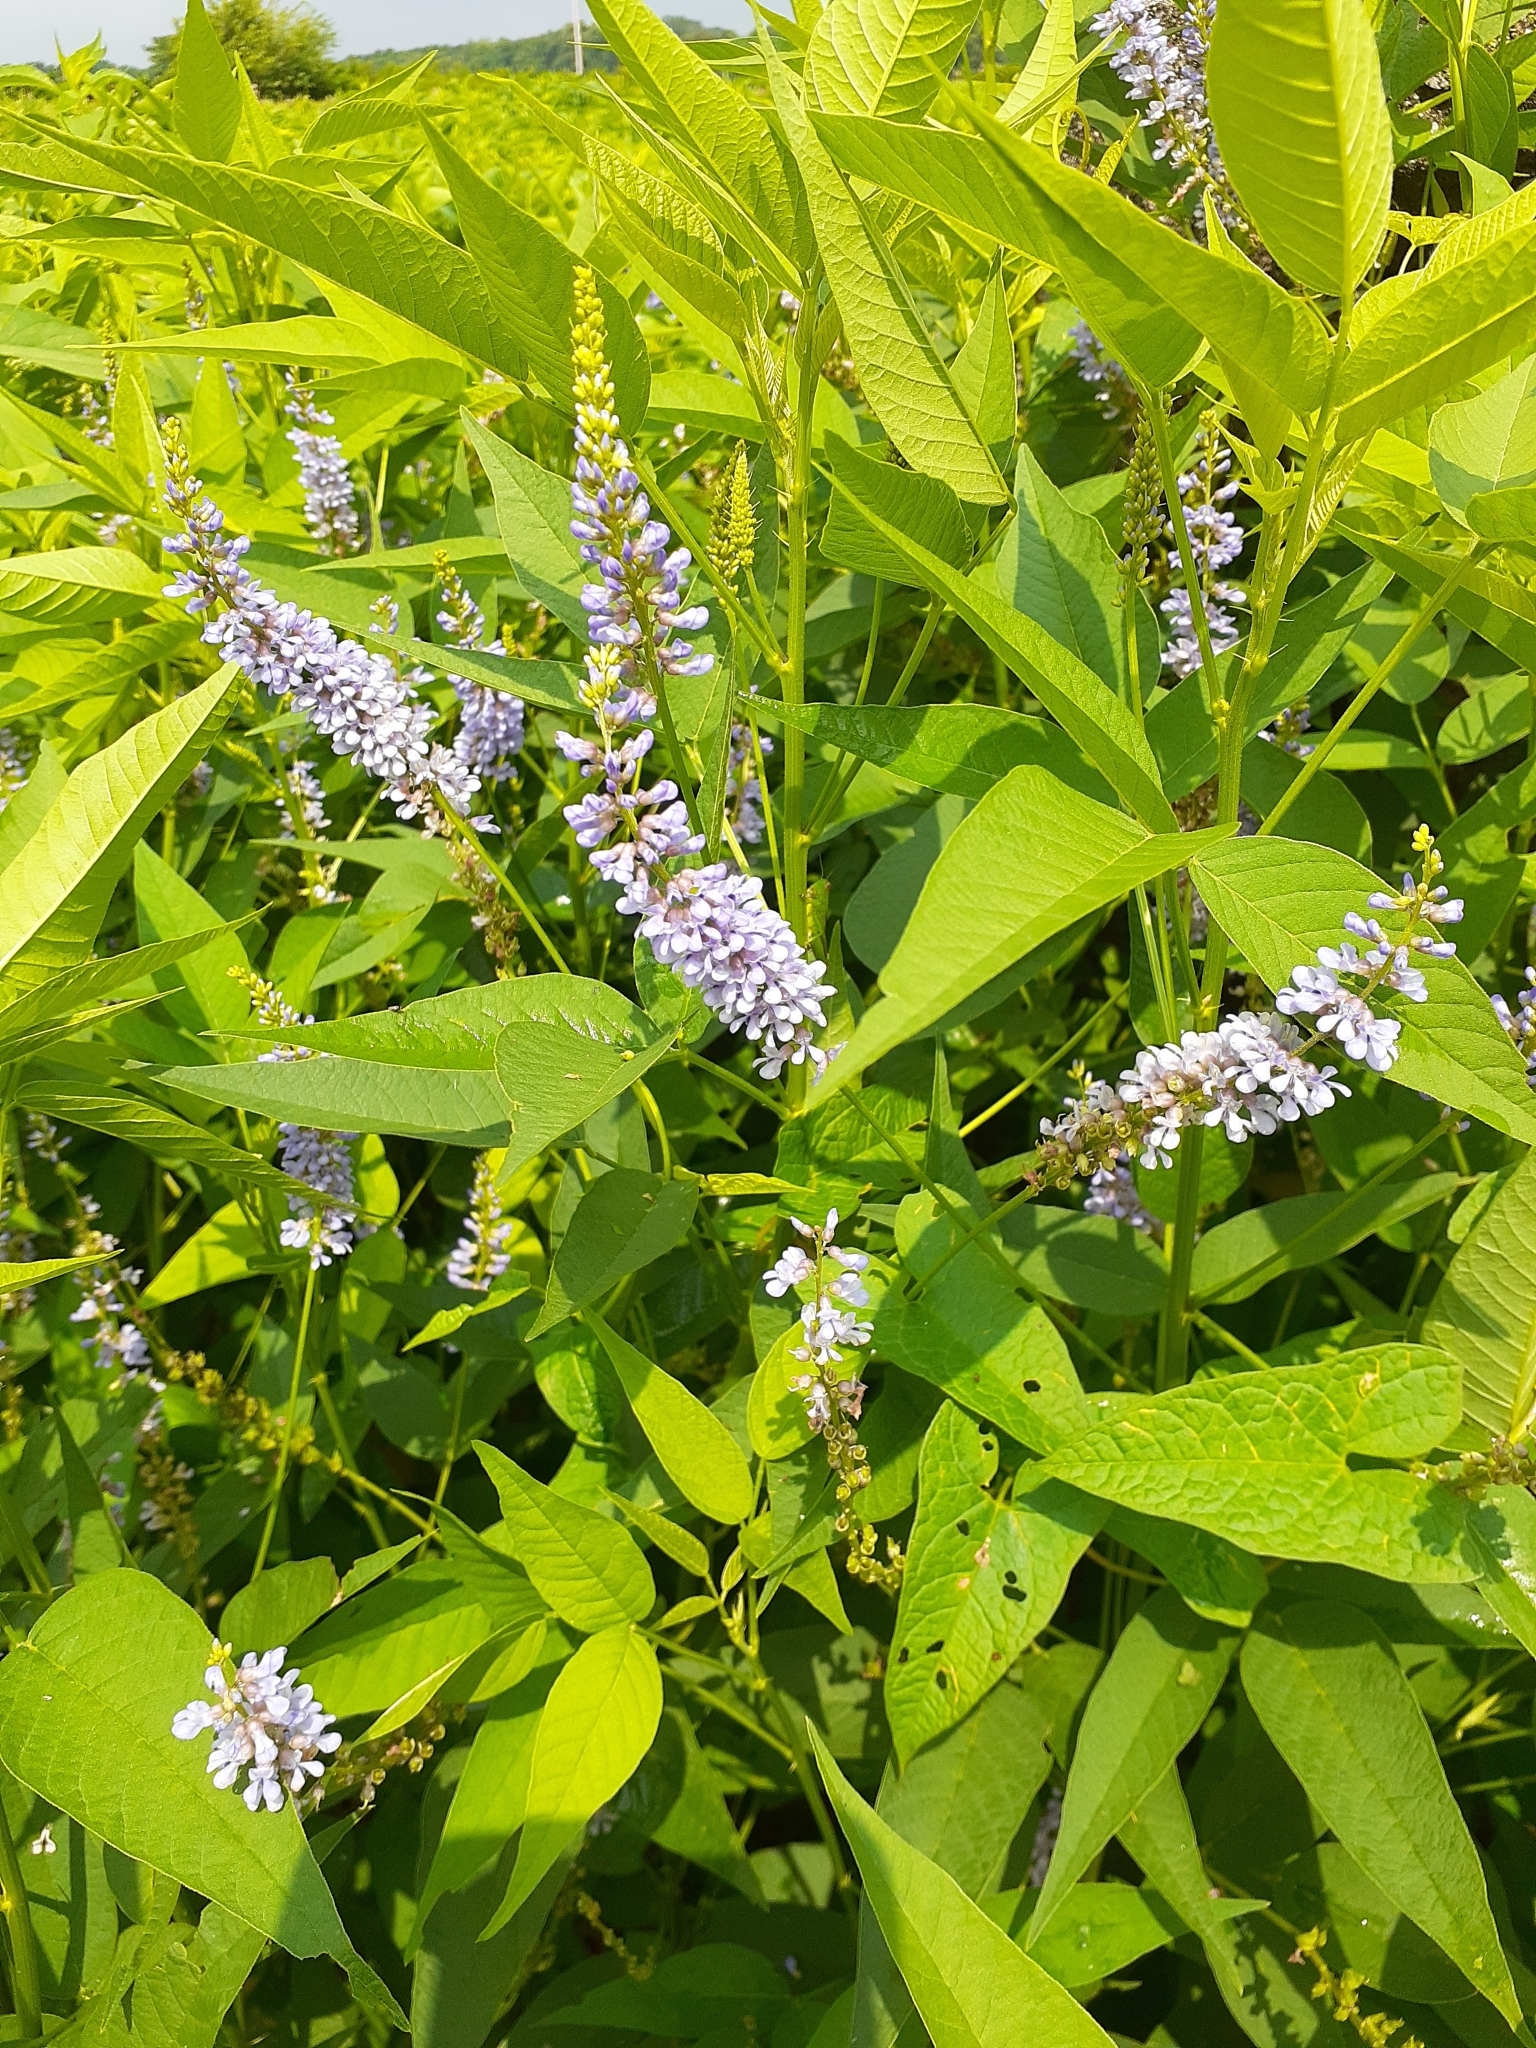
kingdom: Plantae
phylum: Tracheophyta
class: Magnoliopsida
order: Fabales
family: Fabaceae
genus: Orbexilum
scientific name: Orbexilum onobrychis
